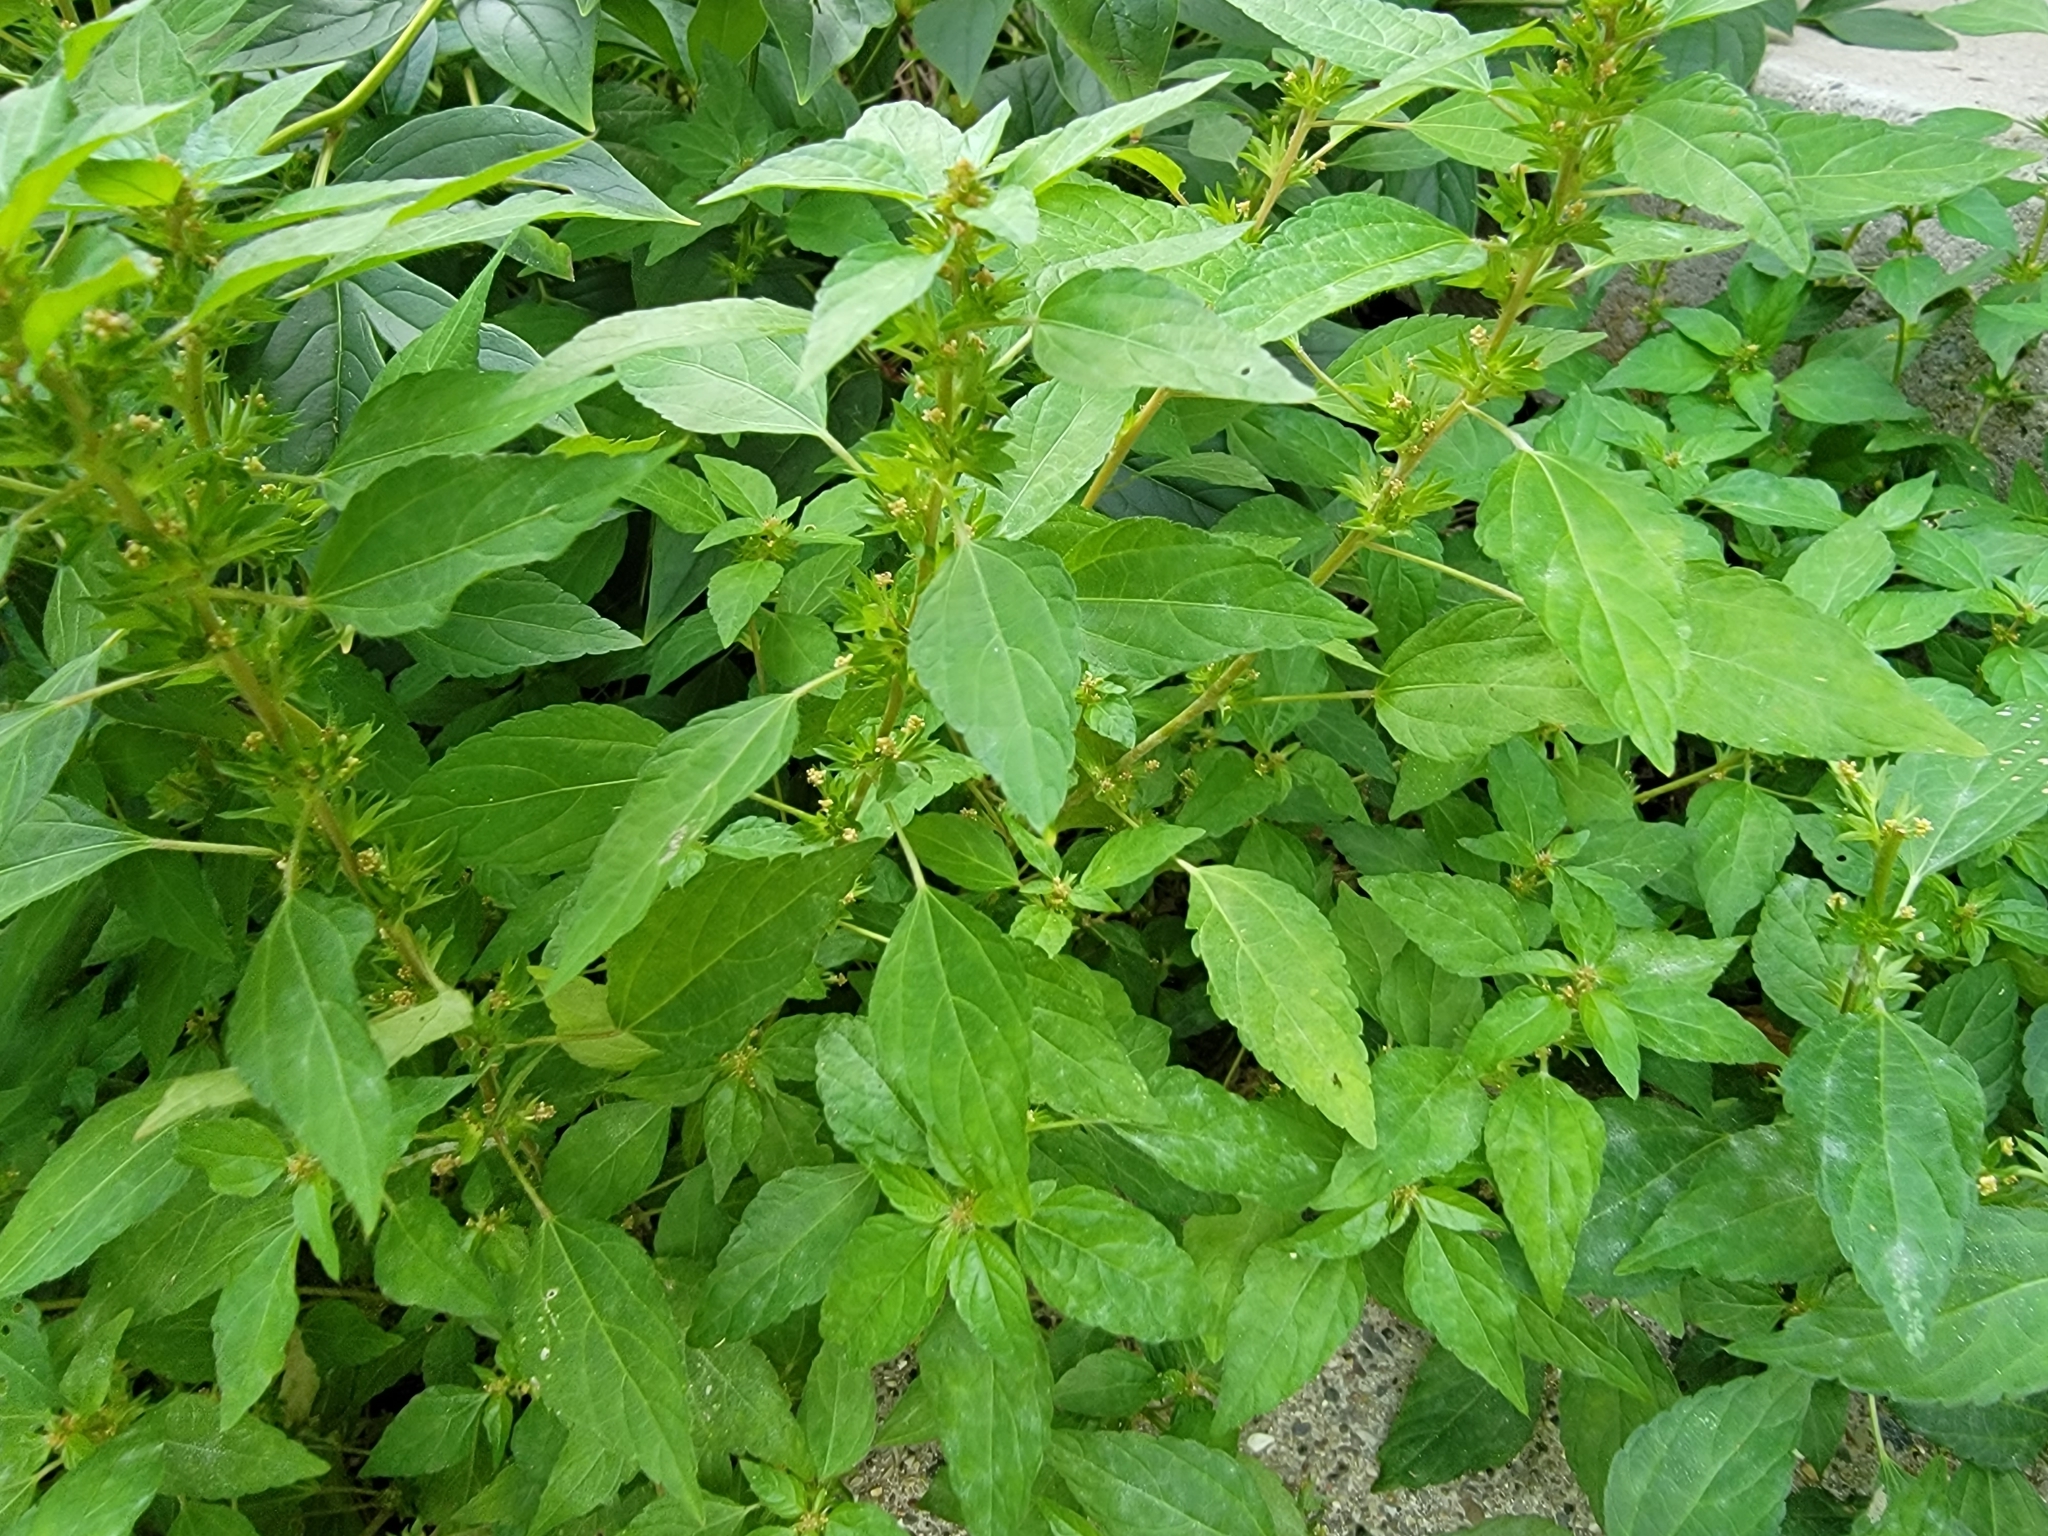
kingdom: Plantae
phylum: Tracheophyta
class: Magnoliopsida
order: Malpighiales
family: Euphorbiaceae
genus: Acalypha
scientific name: Acalypha rhomboidea
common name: Rhombic copperleaf
